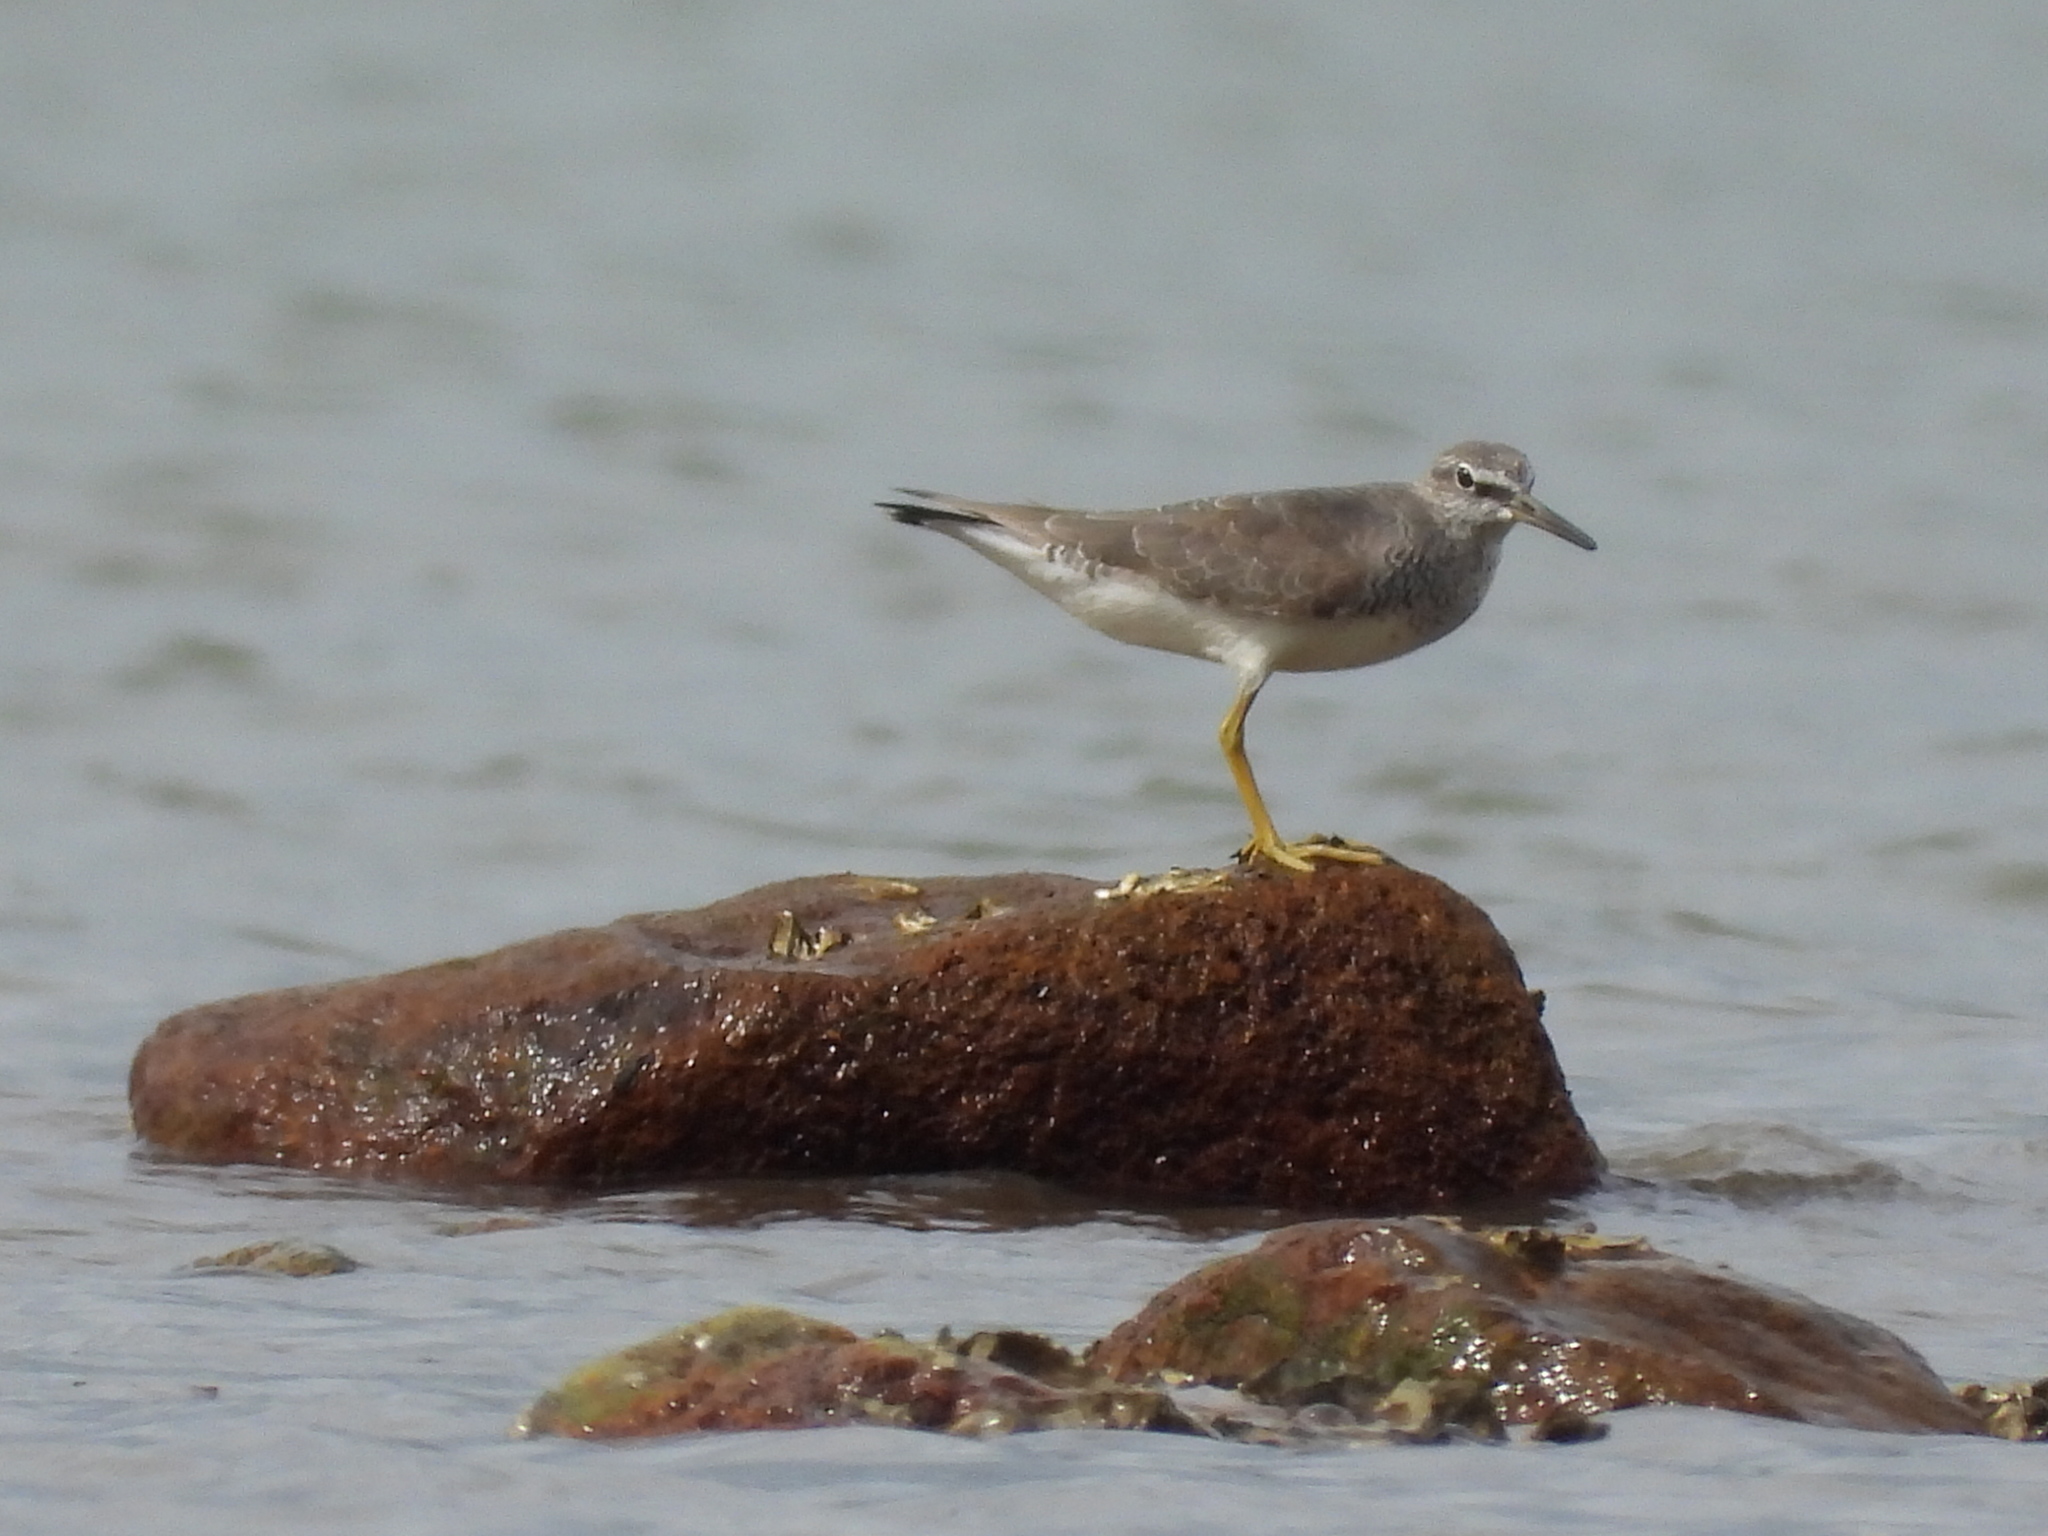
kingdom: Animalia
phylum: Chordata
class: Aves
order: Charadriiformes
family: Scolopacidae
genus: Tringa
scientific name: Tringa brevipes
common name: Grey-tailed tattler
